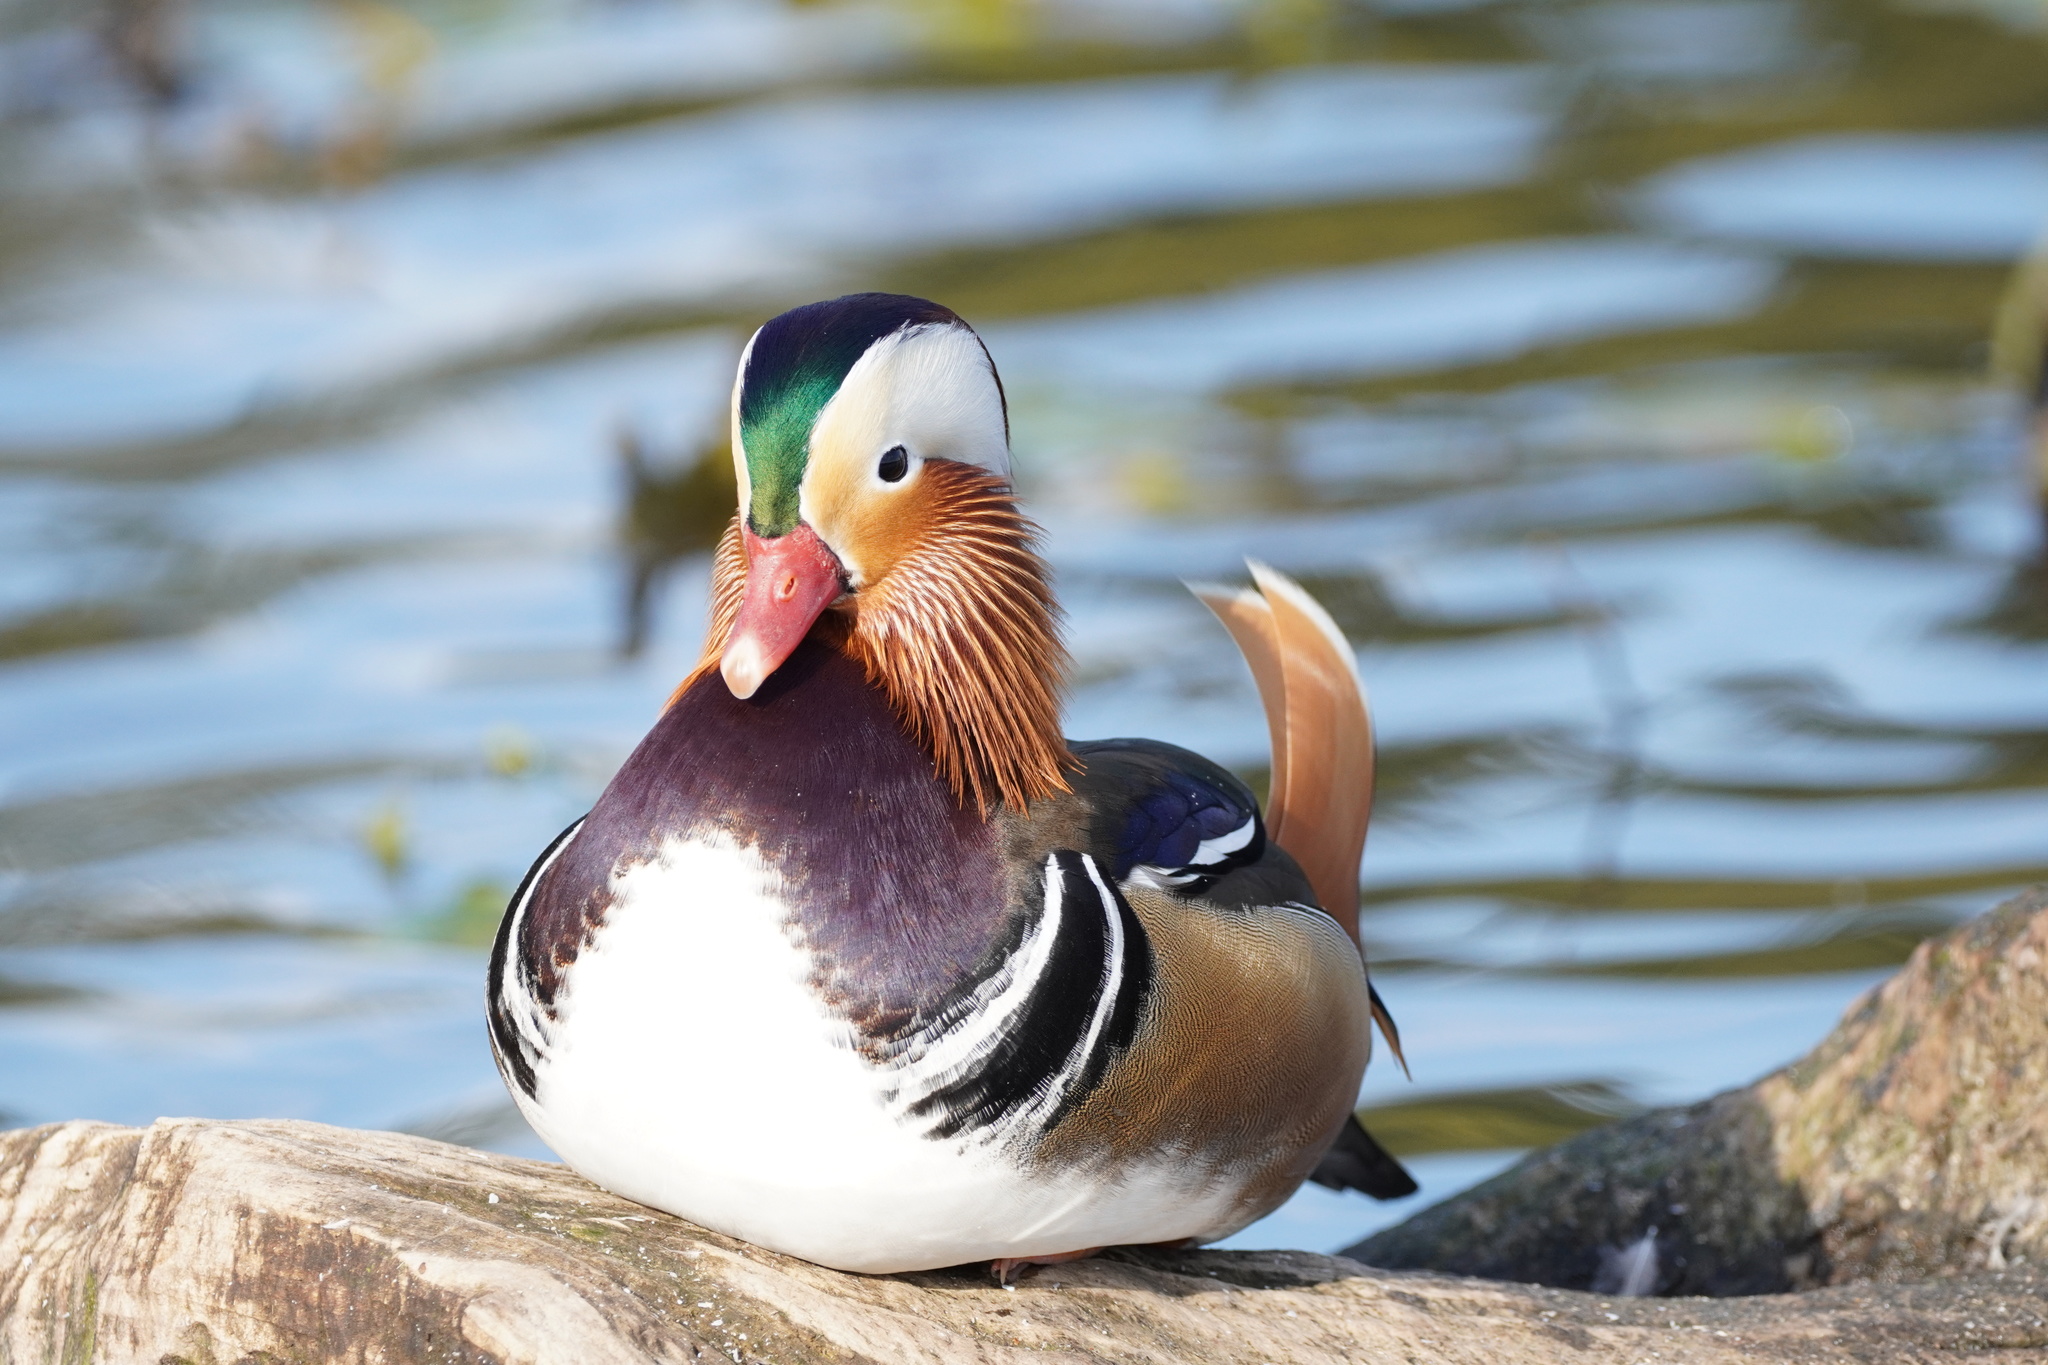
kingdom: Animalia
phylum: Chordata
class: Aves
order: Anseriformes
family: Anatidae
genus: Aix
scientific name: Aix galericulata
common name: Mandarin duck
